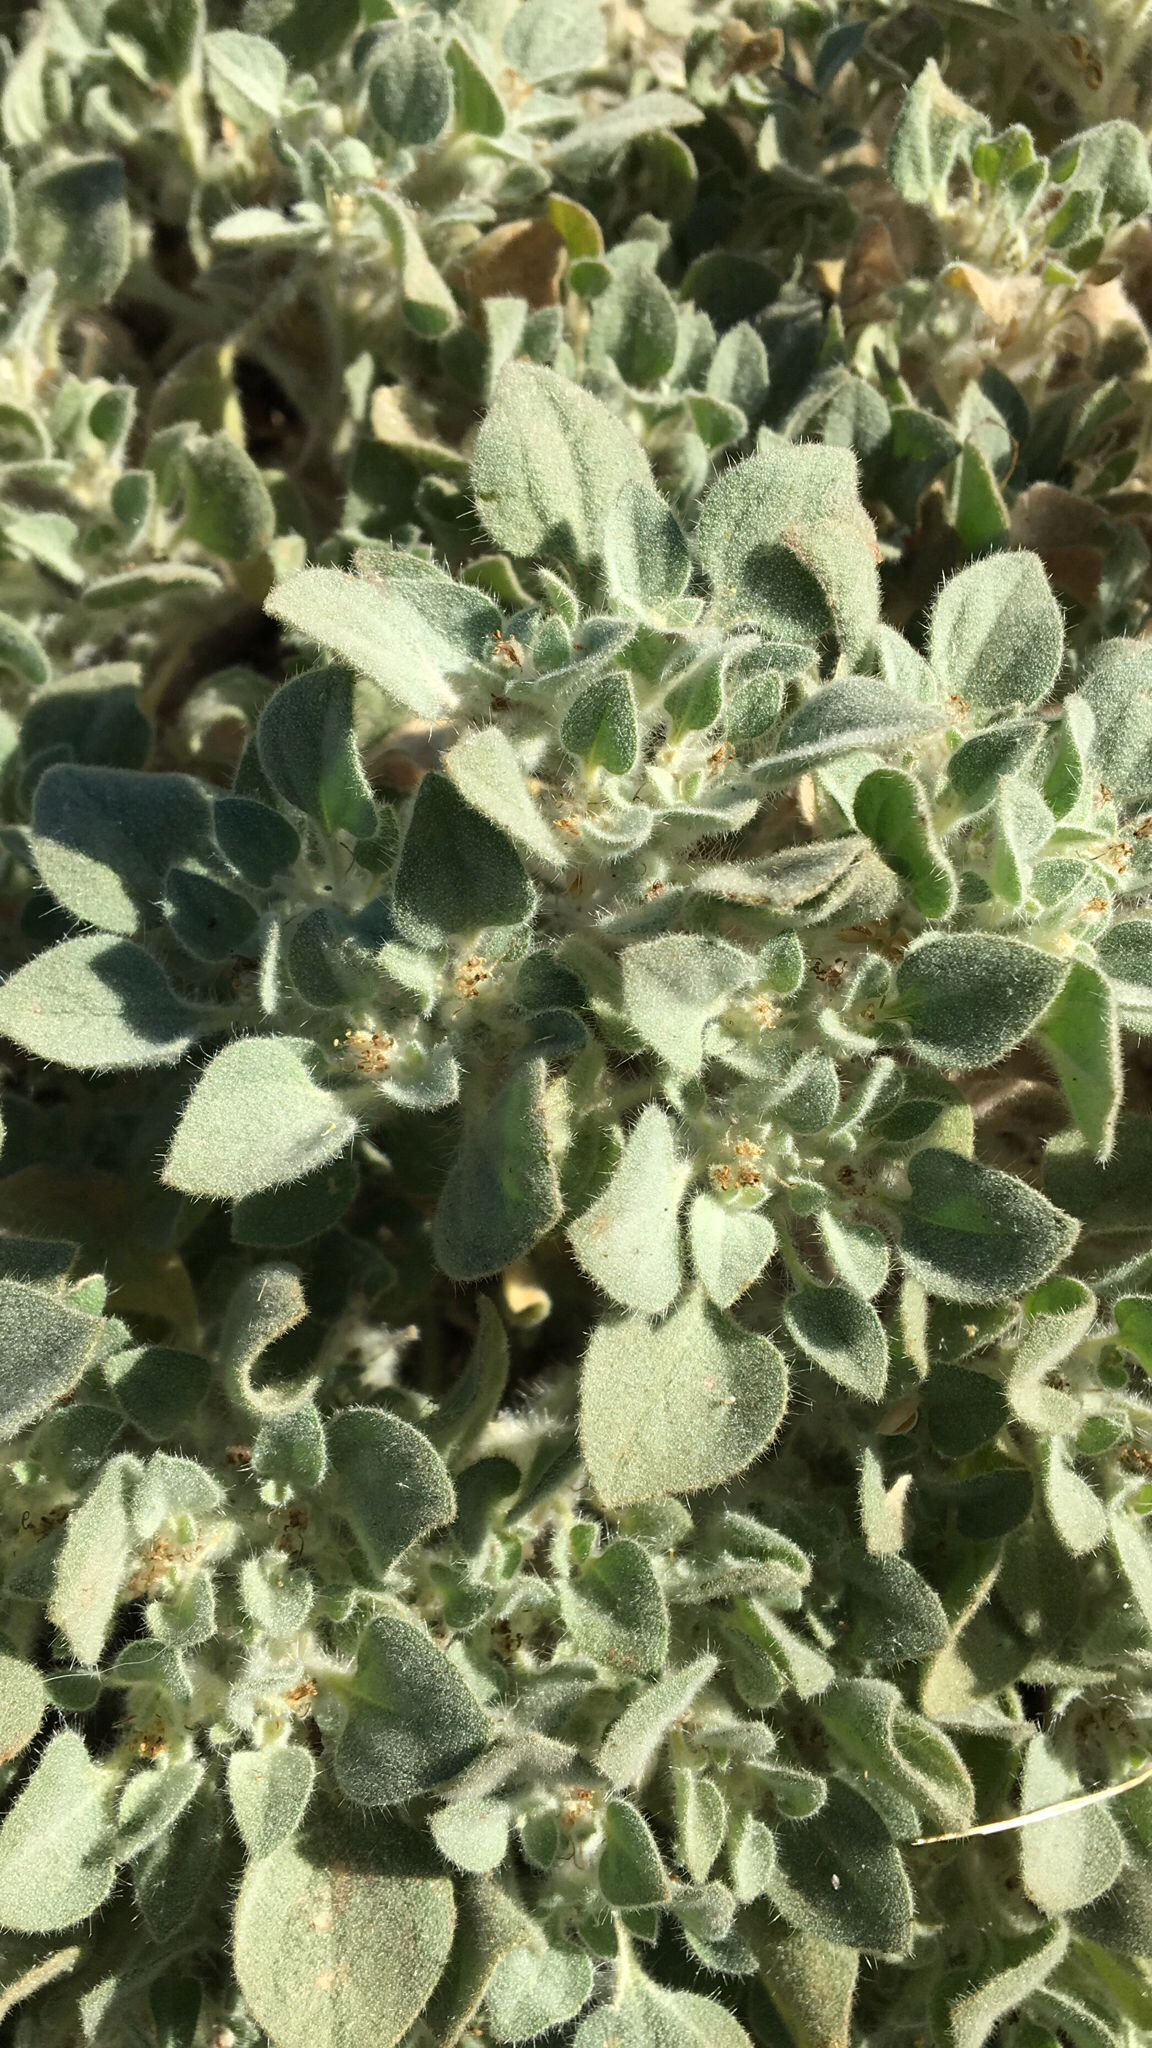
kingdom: Plantae
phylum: Tracheophyta
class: Magnoliopsida
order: Malpighiales
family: Euphorbiaceae
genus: Croton
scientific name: Croton setiger
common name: Dove weed
